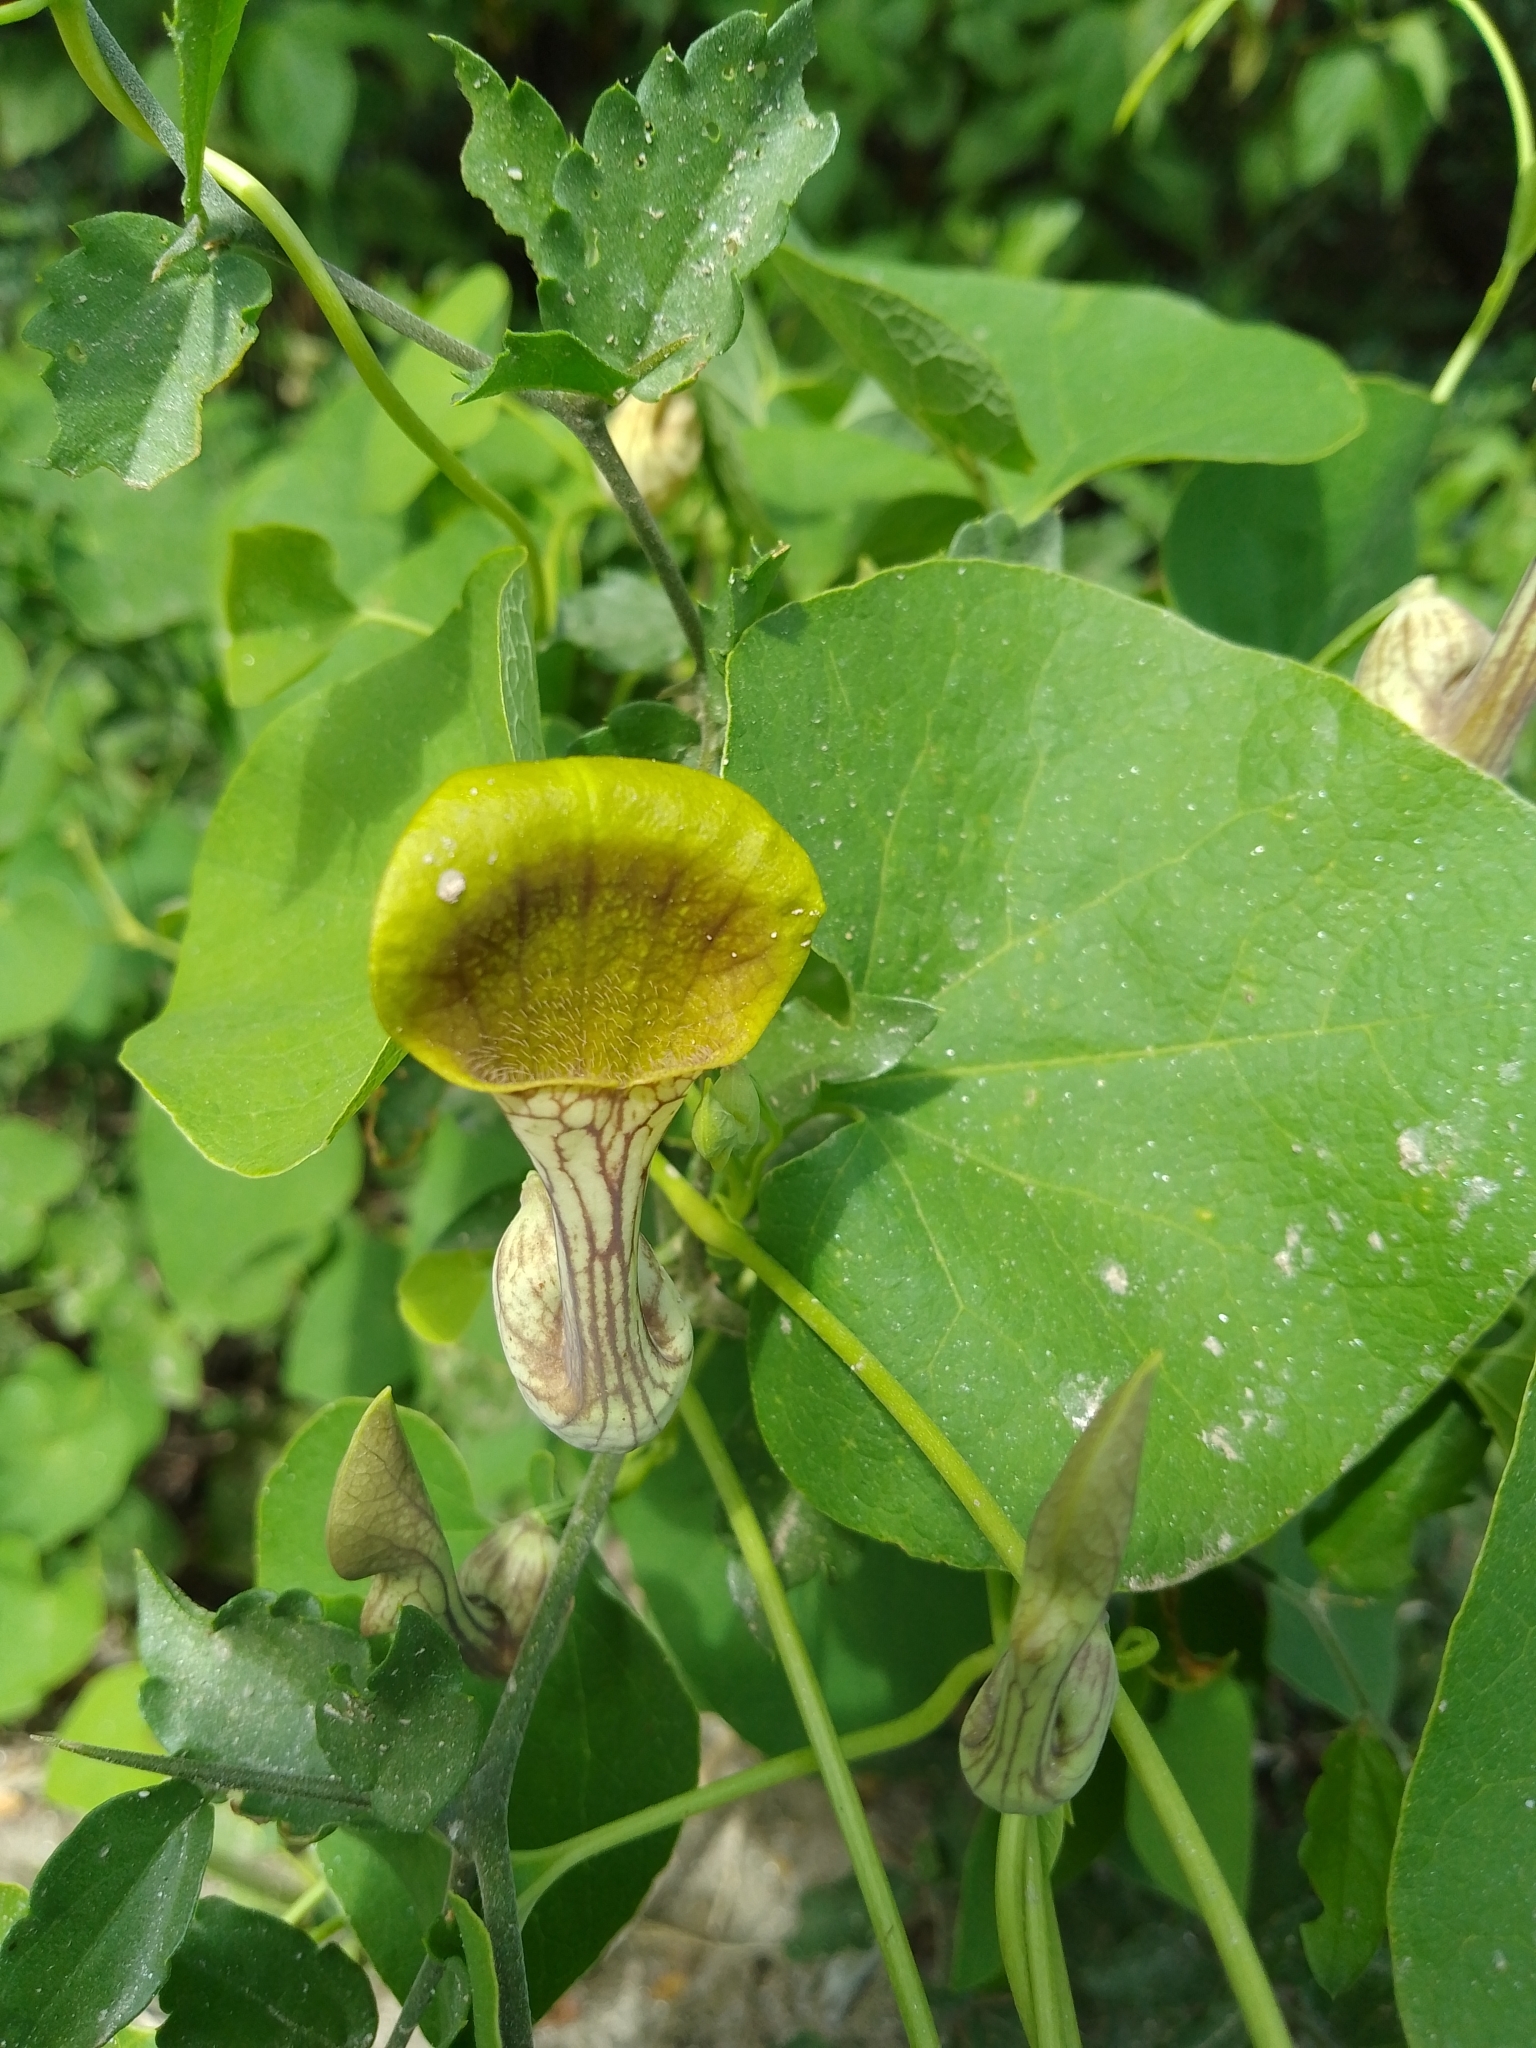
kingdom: Plantae
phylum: Tracheophyta
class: Magnoliopsida
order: Piperales
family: Aristolochiaceae
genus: Aristolochia
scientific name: Aristolochia argentina
